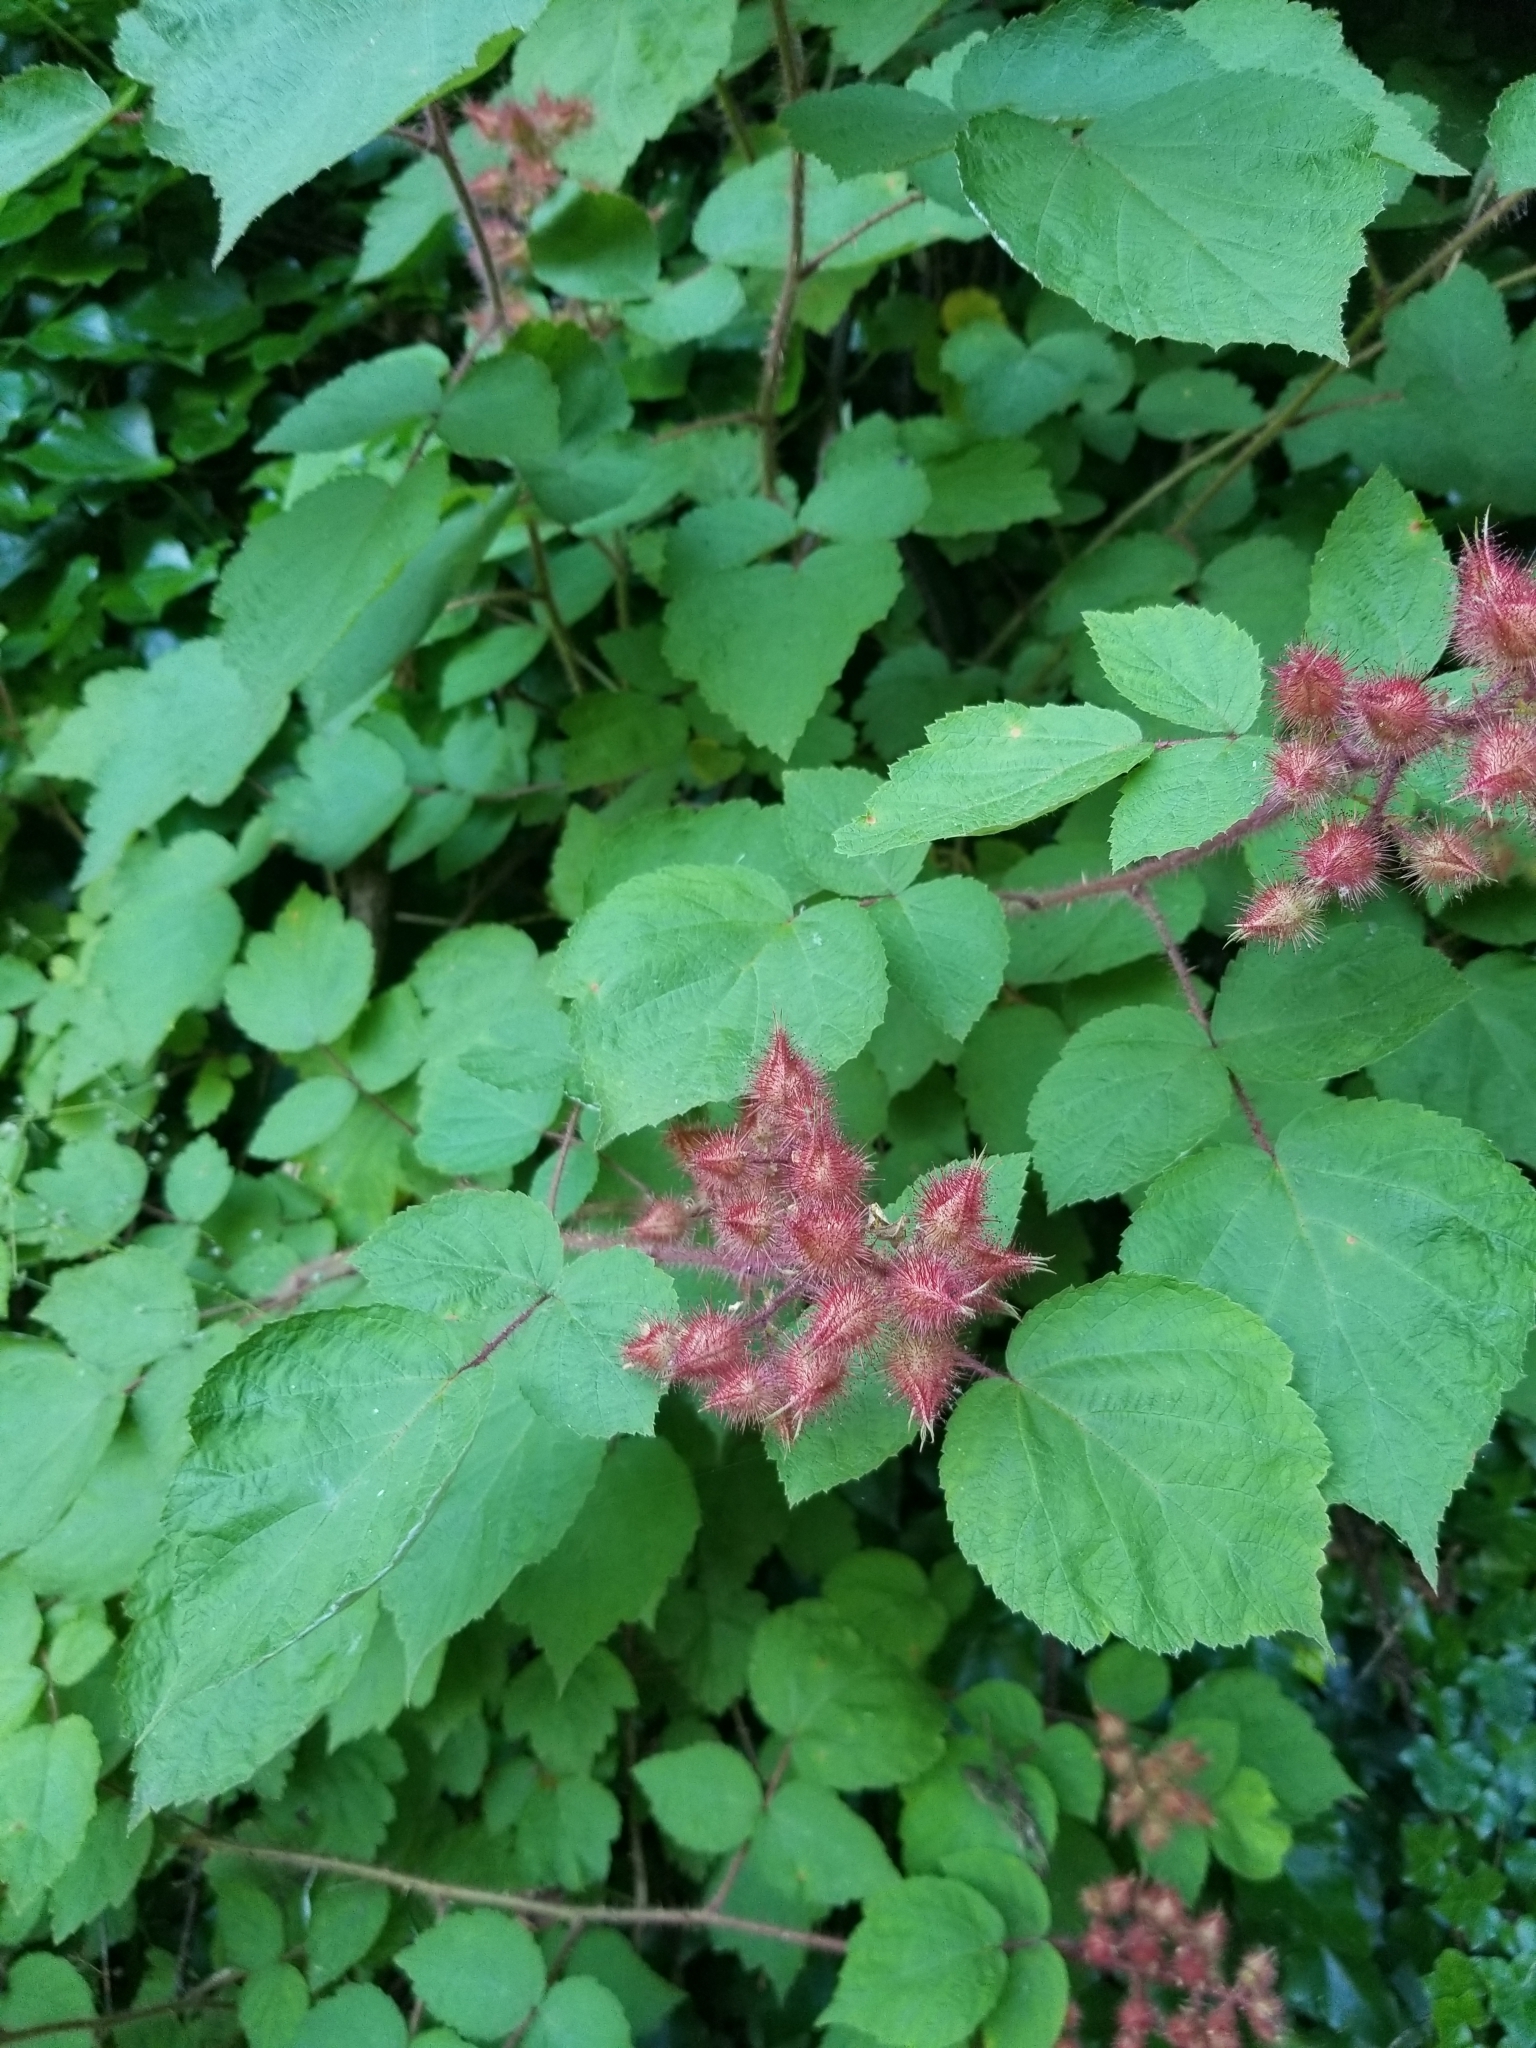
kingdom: Plantae
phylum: Tracheophyta
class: Magnoliopsida
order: Rosales
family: Rosaceae
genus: Rubus
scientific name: Rubus phoenicolasius
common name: Japanese wineberry
